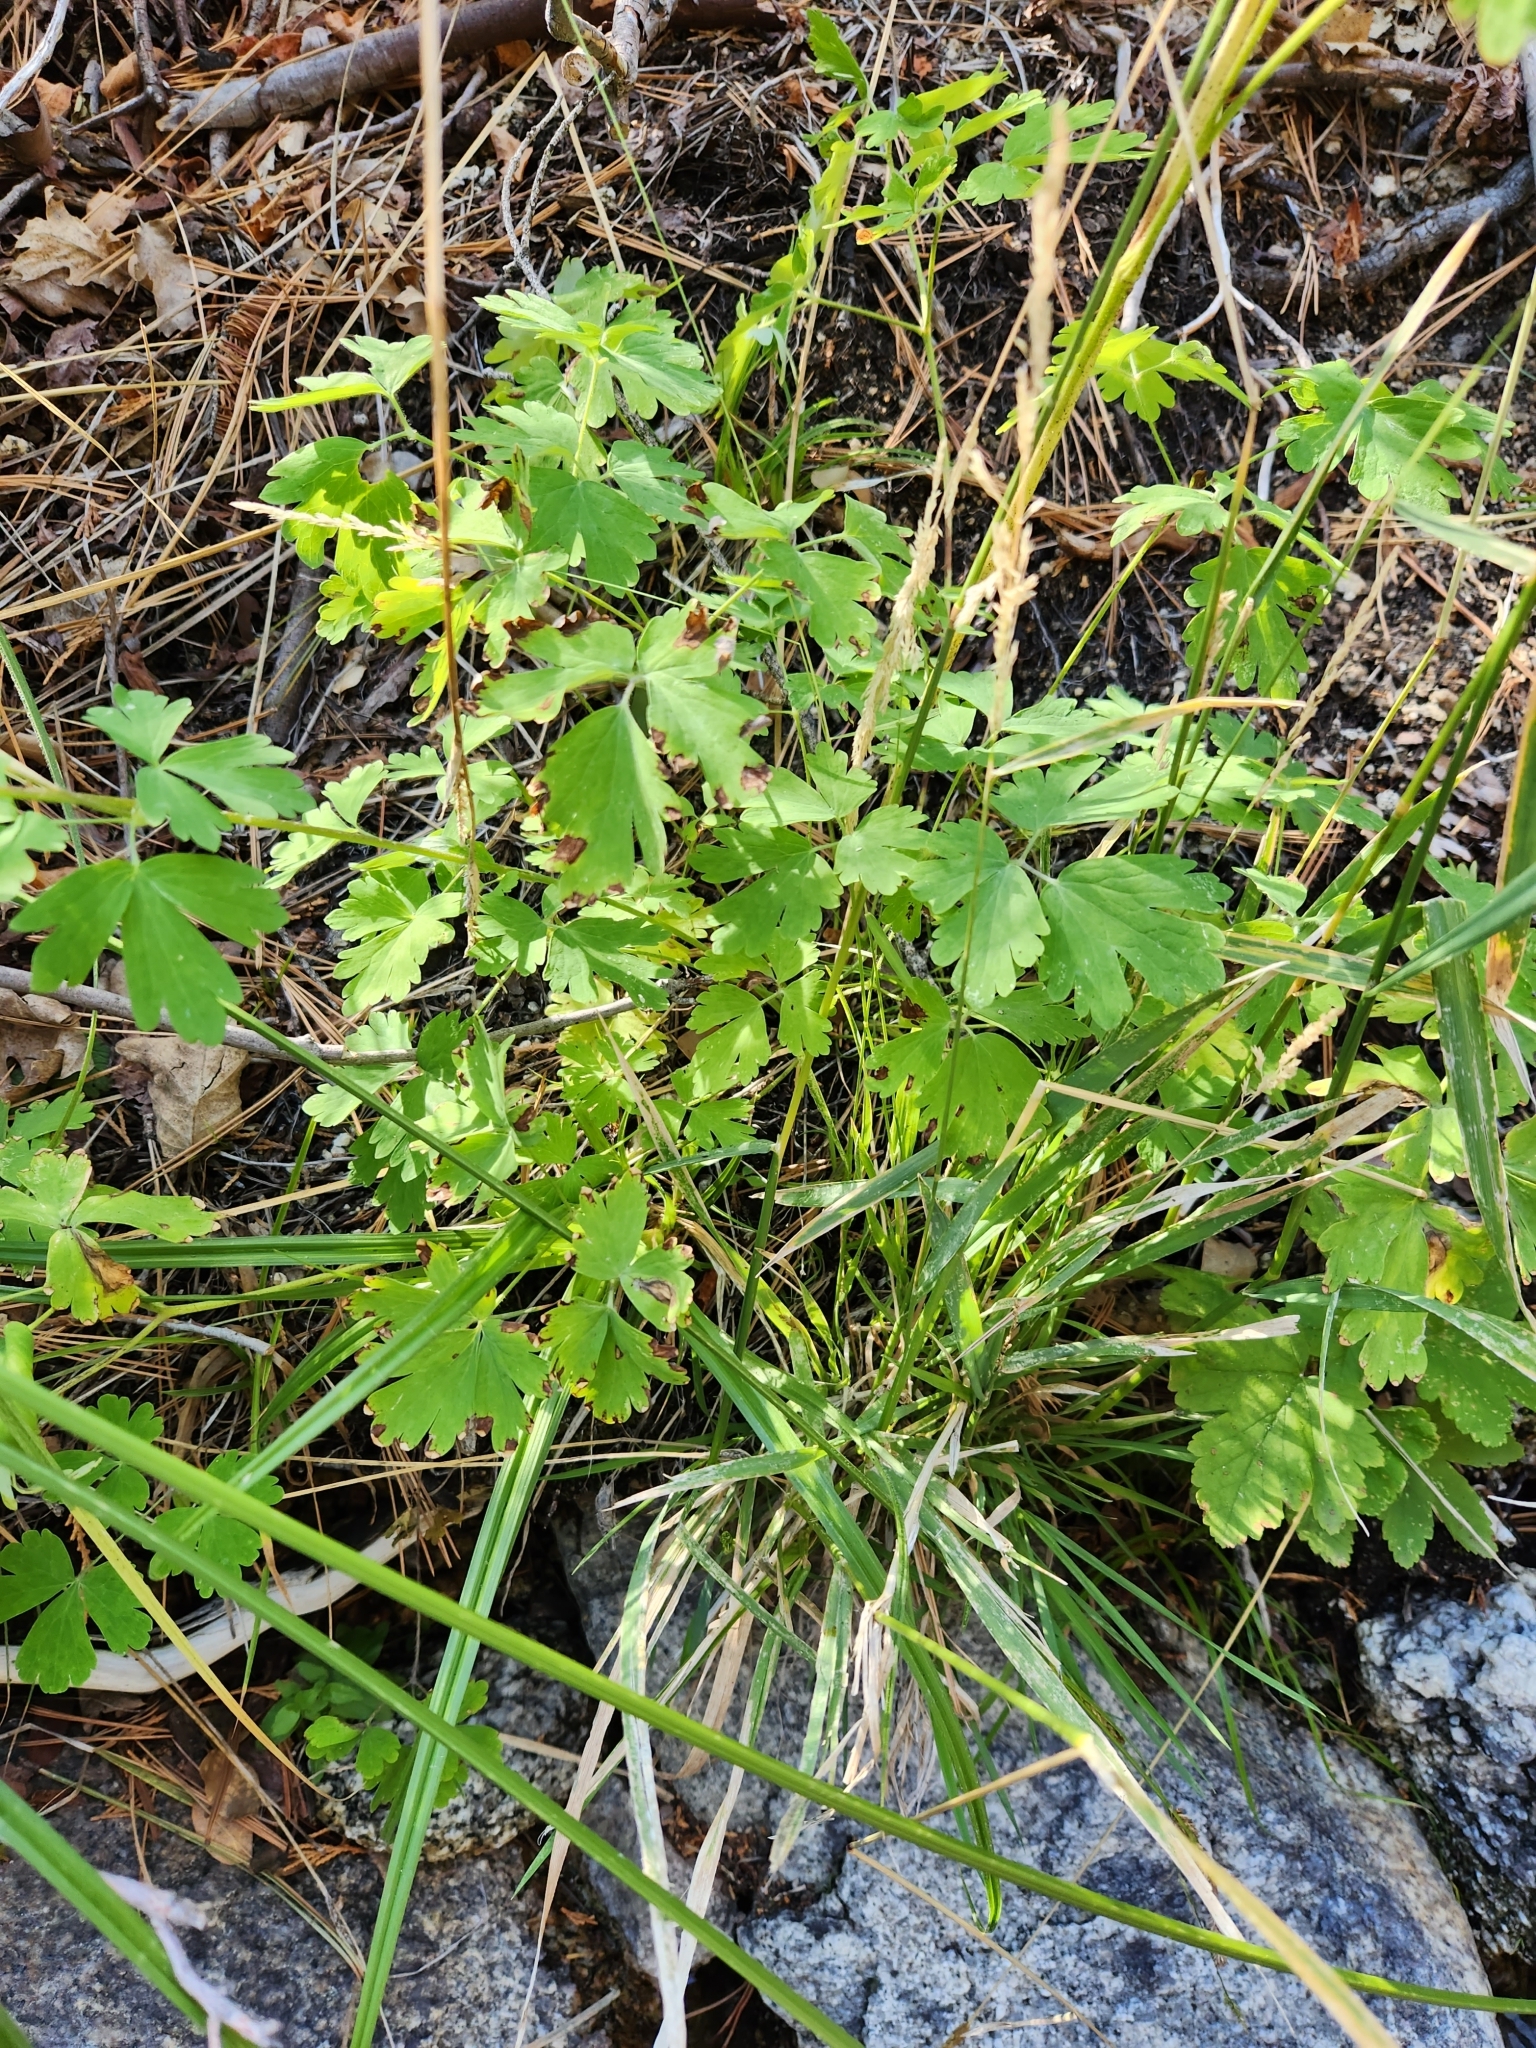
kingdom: Plantae
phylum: Tracheophyta
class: Magnoliopsida
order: Ranunculales
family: Ranunculaceae
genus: Aquilegia
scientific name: Aquilegia formosa
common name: Sitka columbine
